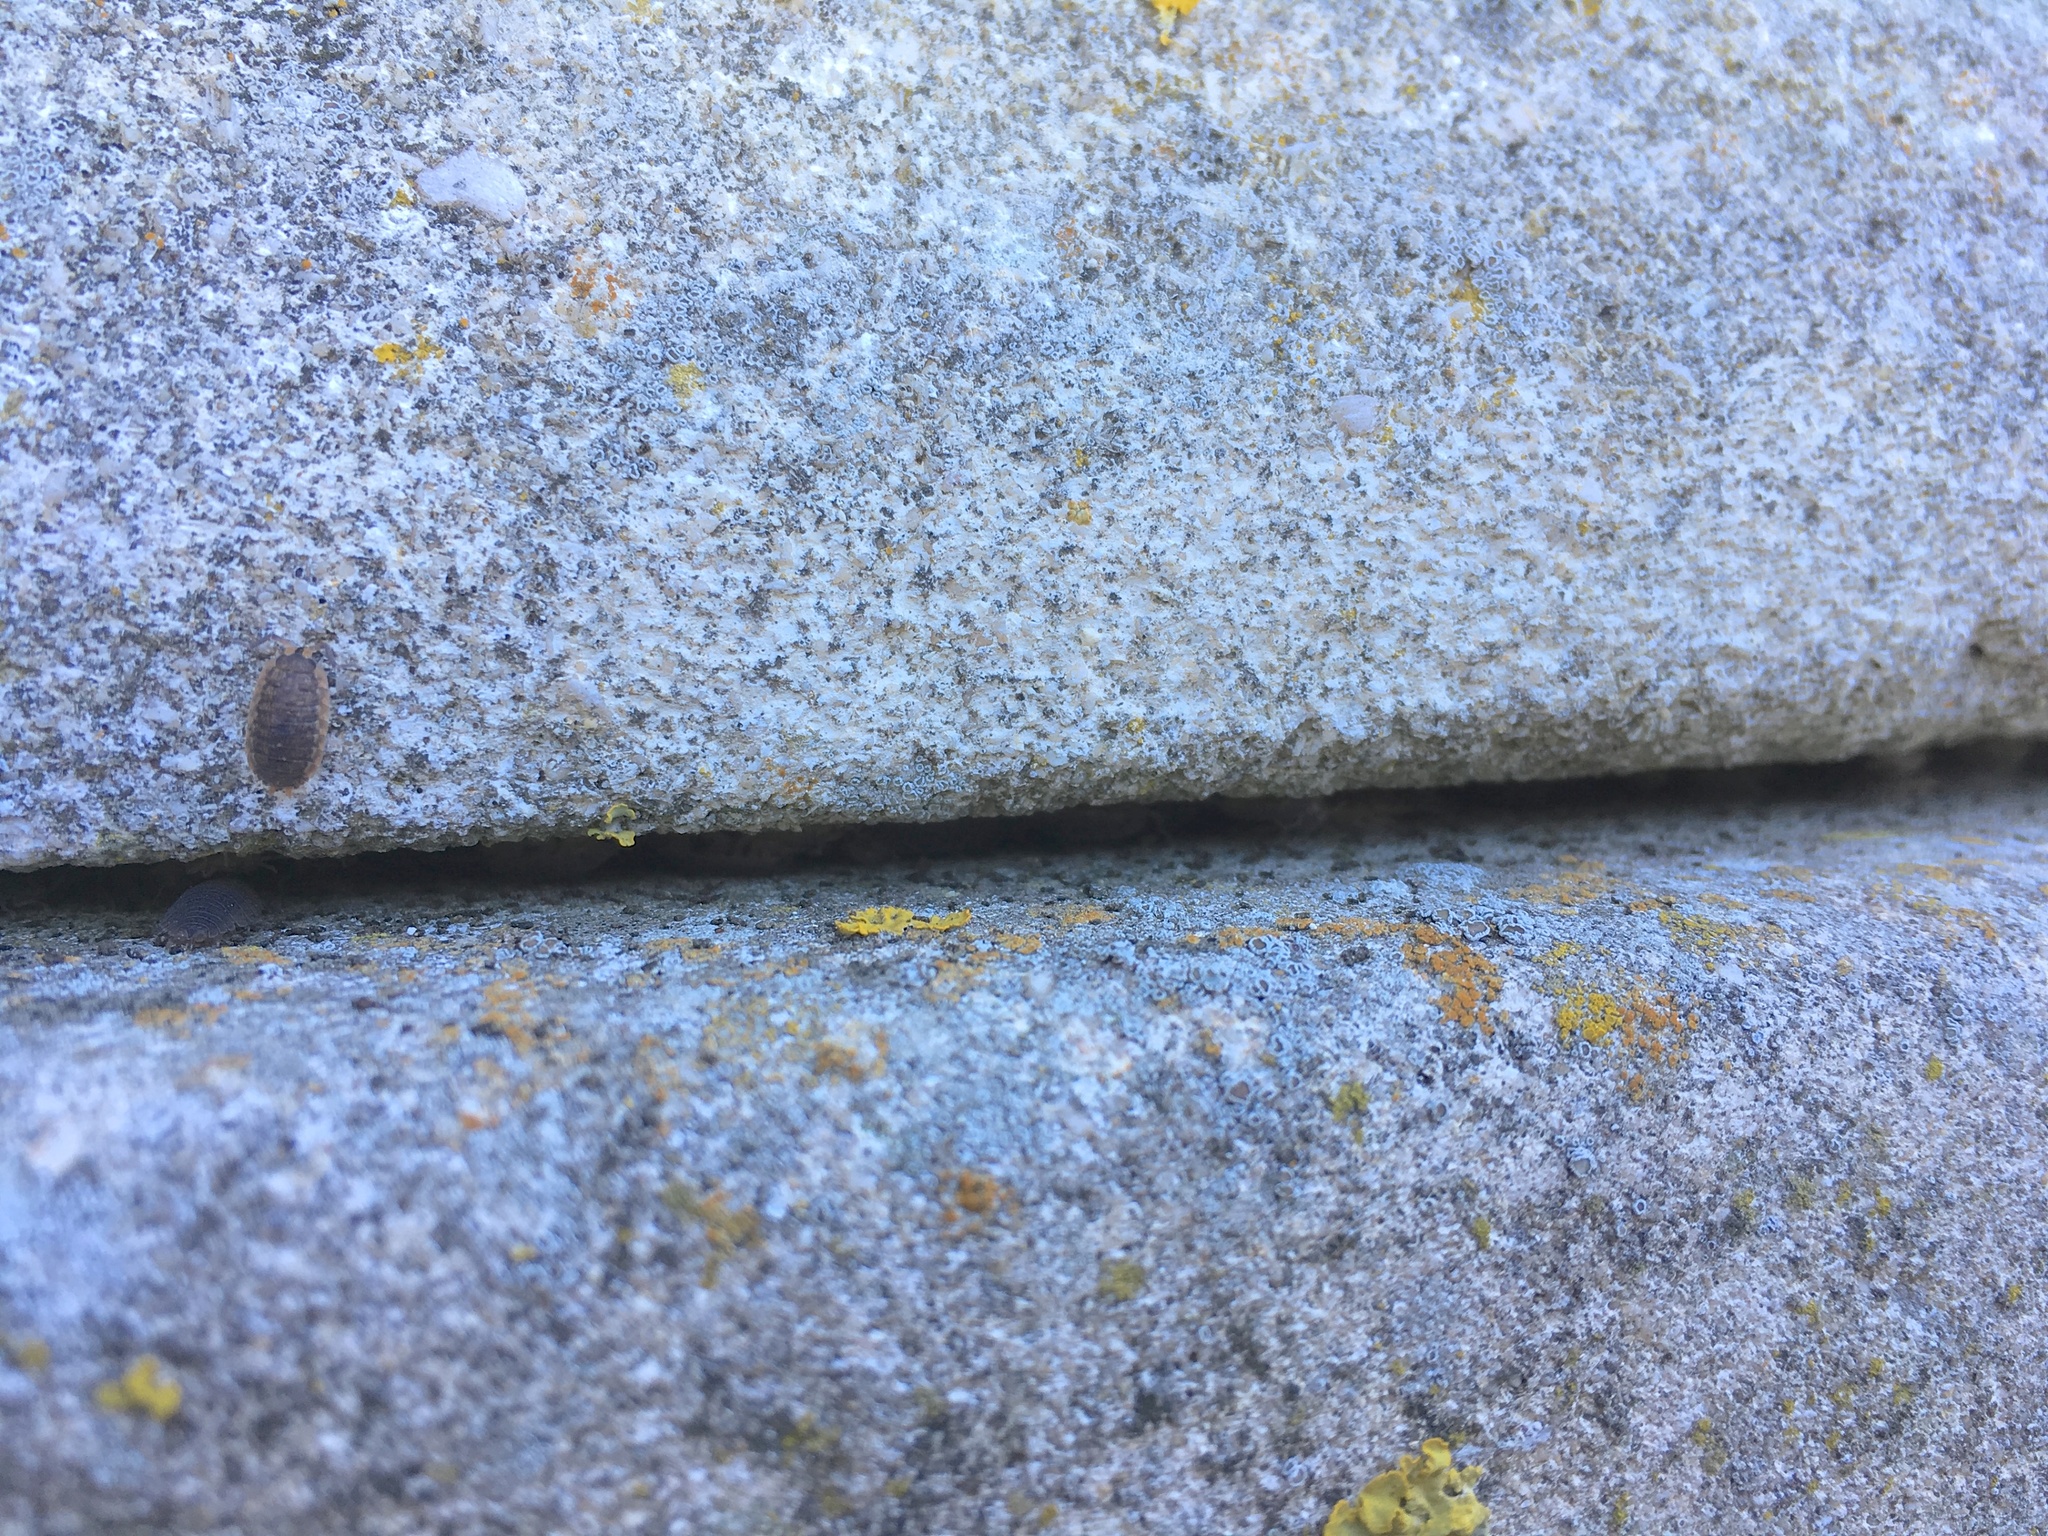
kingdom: Animalia
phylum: Arthropoda
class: Malacostraca
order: Isopoda
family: Porcellionidae
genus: Porcellio
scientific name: Porcellio scaber
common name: Common rough woodlouse
